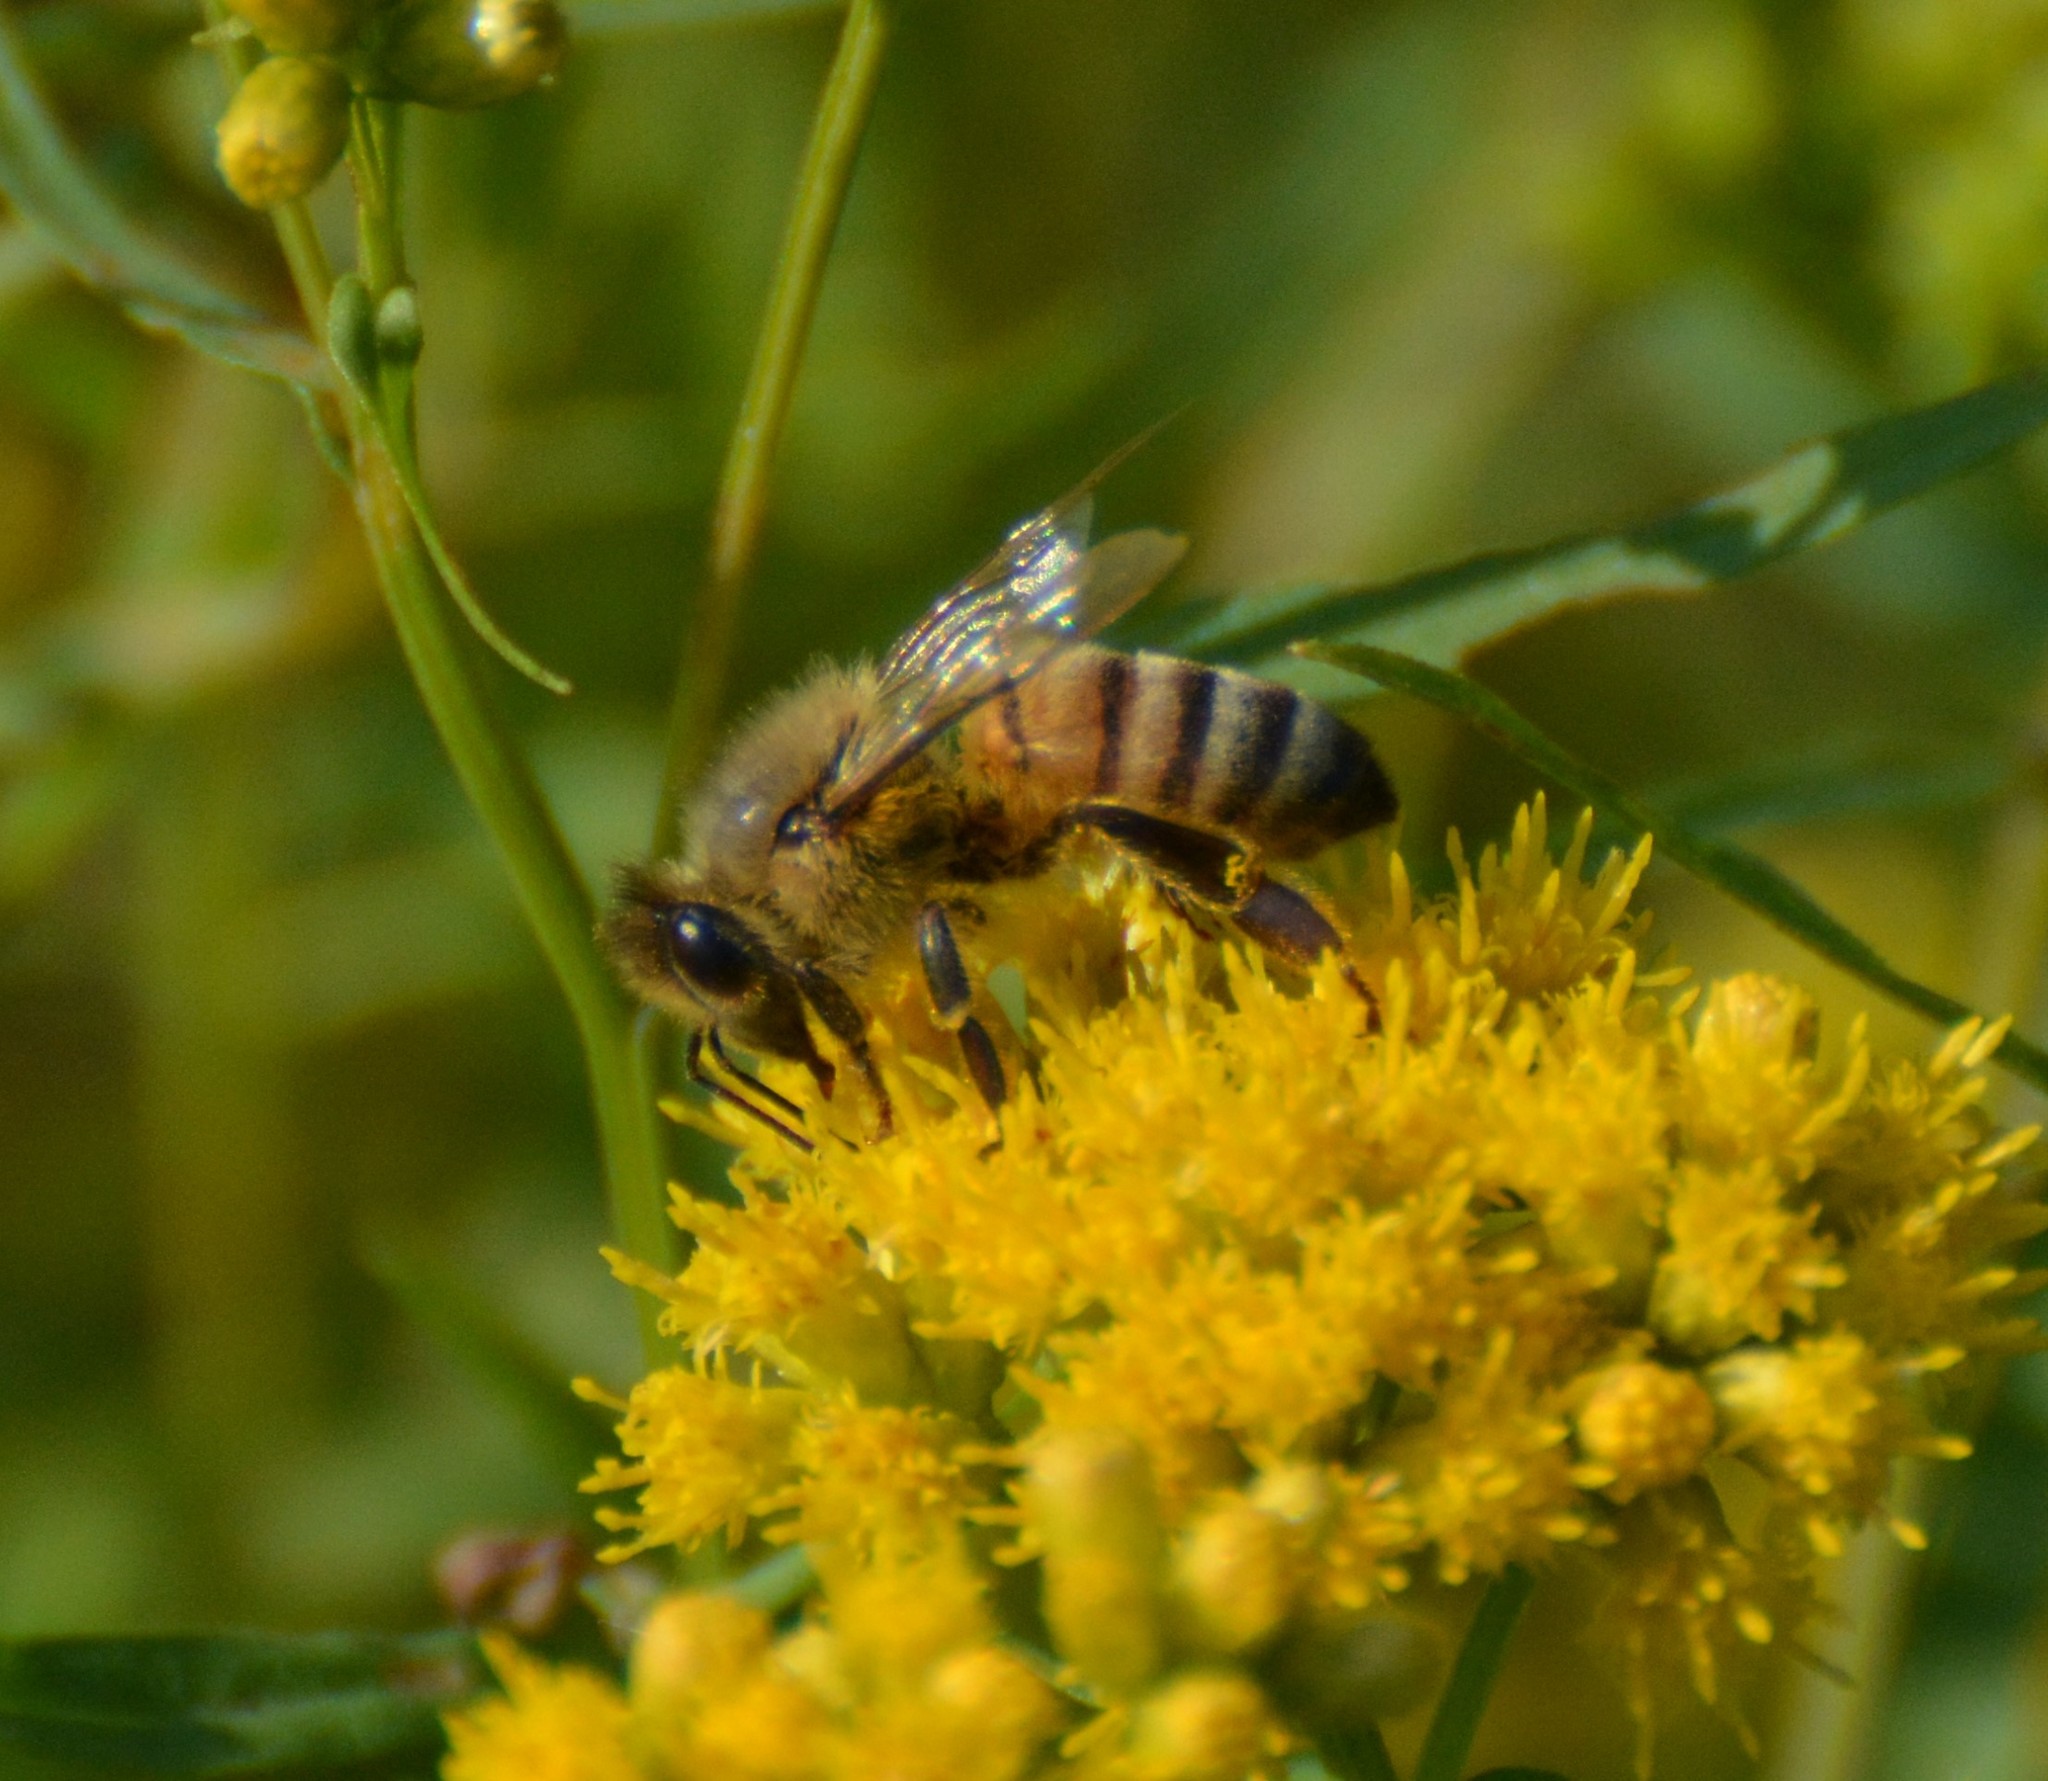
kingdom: Animalia
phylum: Arthropoda
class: Insecta
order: Hymenoptera
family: Apidae
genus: Apis
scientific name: Apis mellifera
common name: Honey bee
